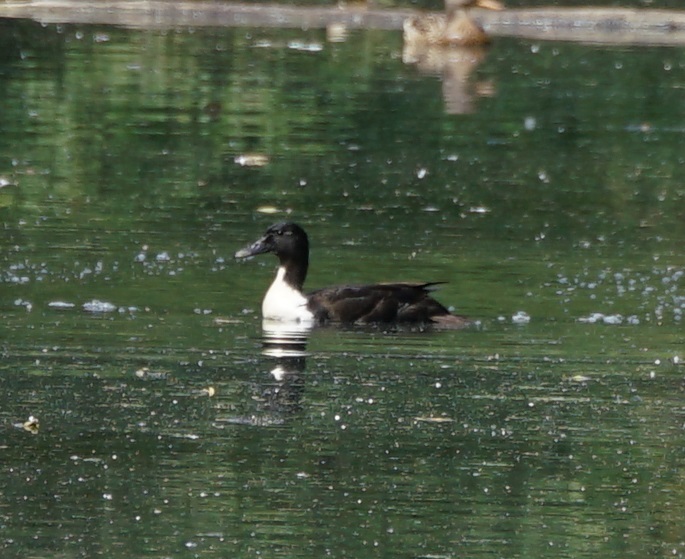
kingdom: Animalia
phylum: Chordata
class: Aves
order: Anseriformes
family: Anatidae
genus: Anas
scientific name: Anas platyrhynchos
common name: Mallard
